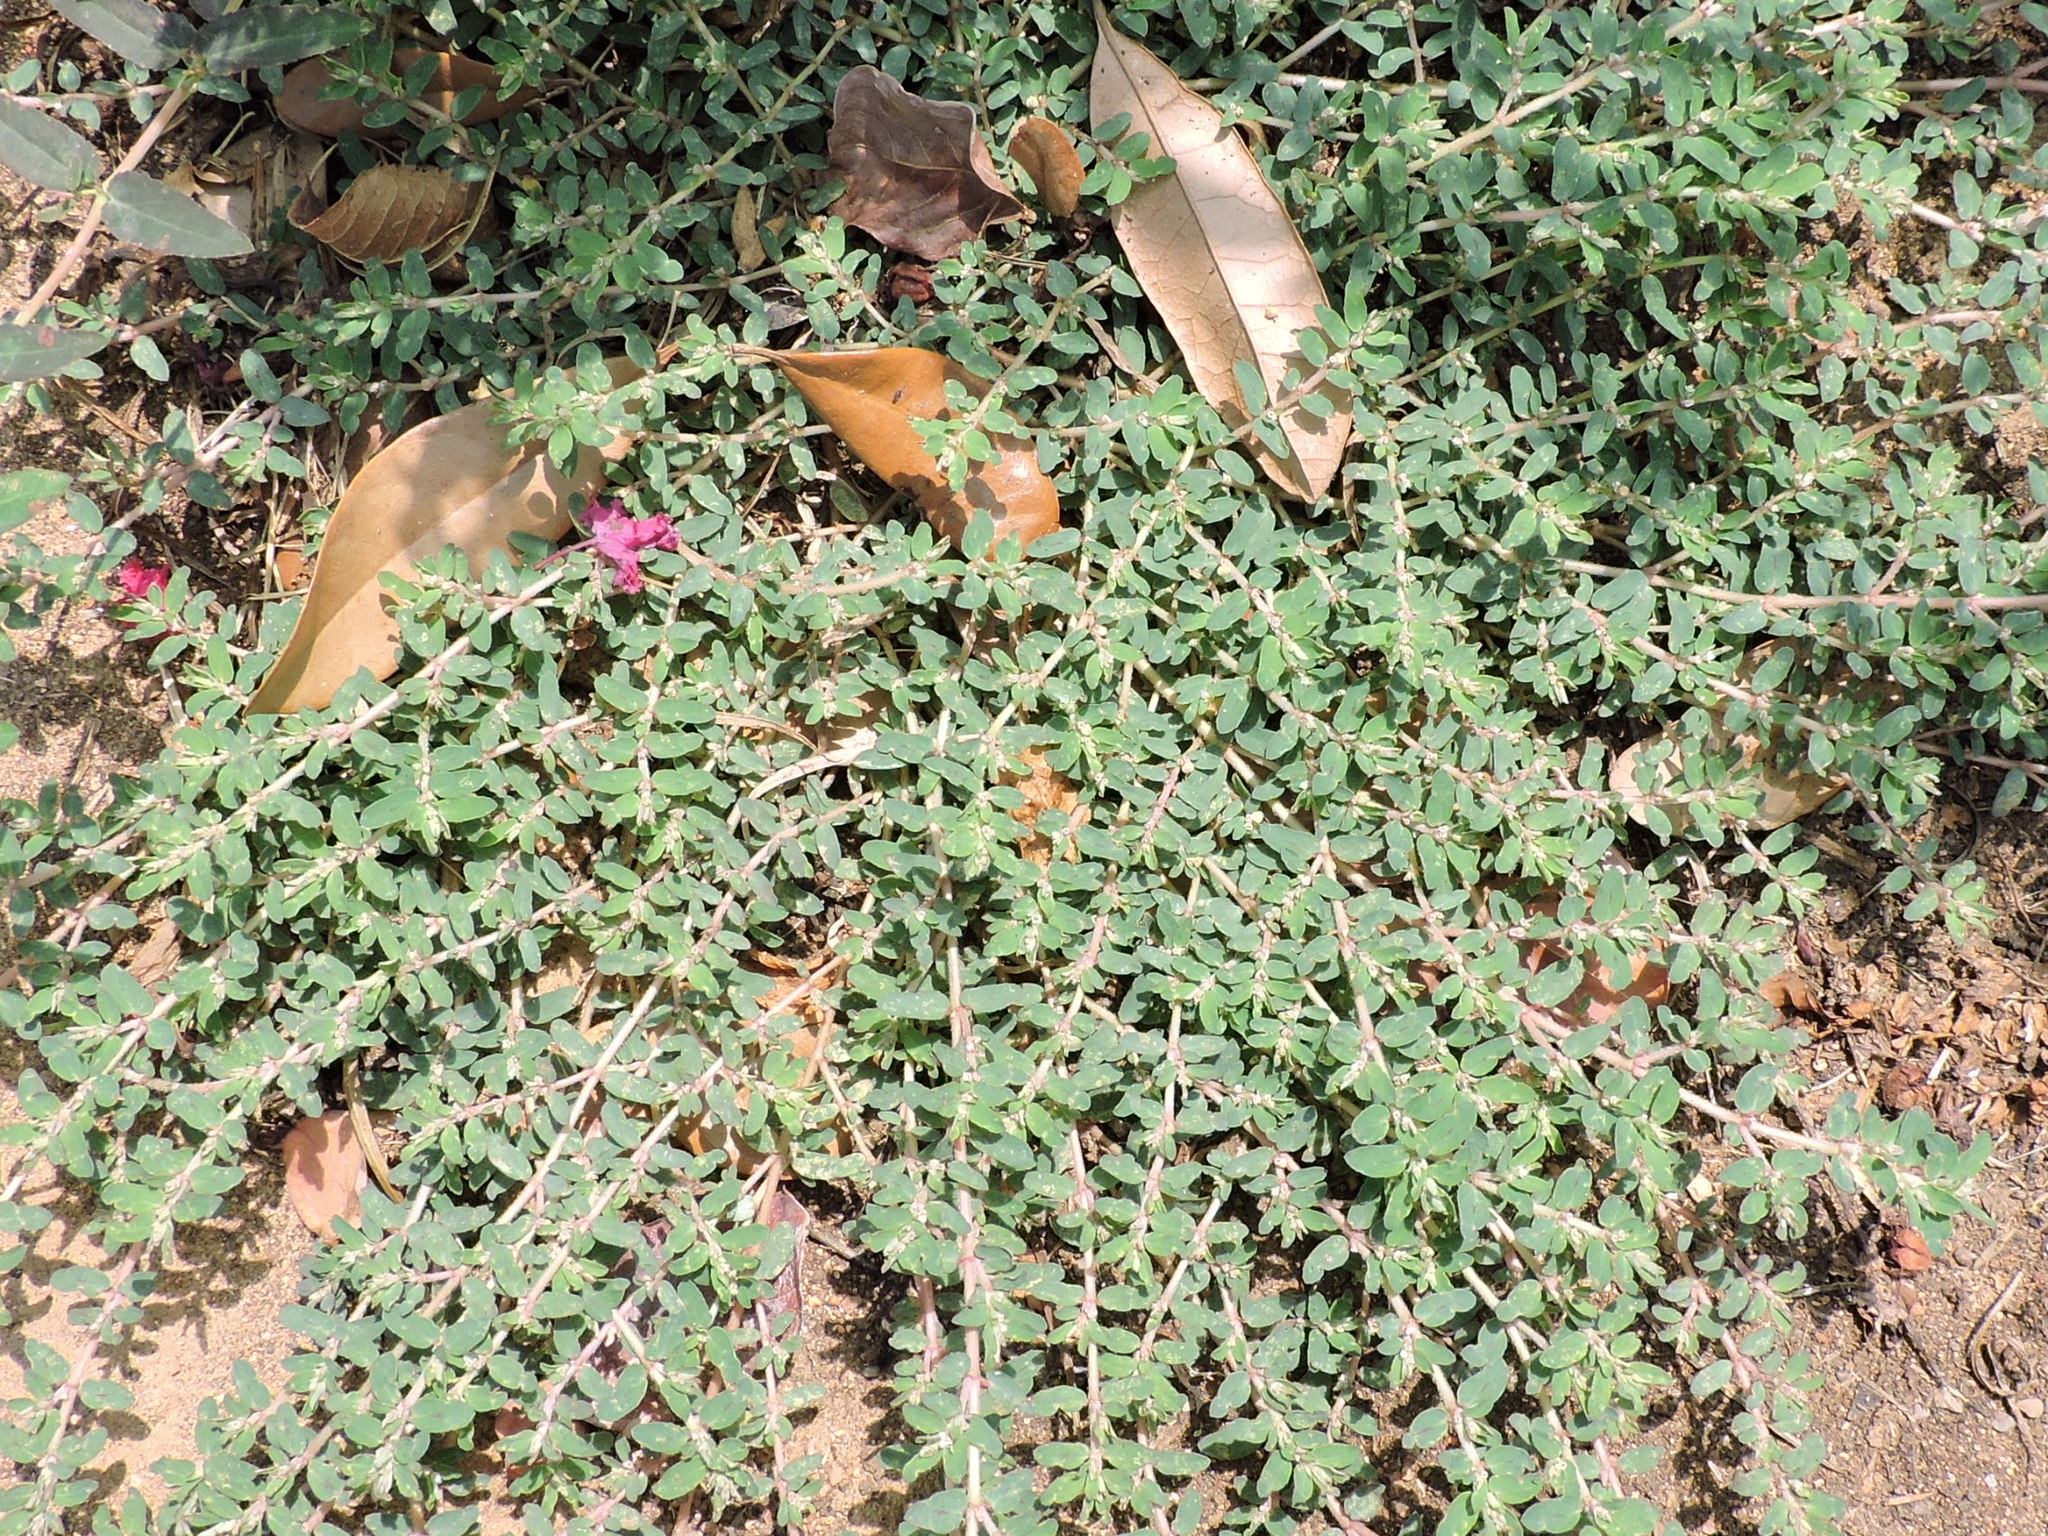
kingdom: Plantae
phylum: Tracheophyta
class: Magnoliopsida
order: Malpighiales
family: Euphorbiaceae
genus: Euphorbia
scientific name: Euphorbia maculata
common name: Spotted spurge
